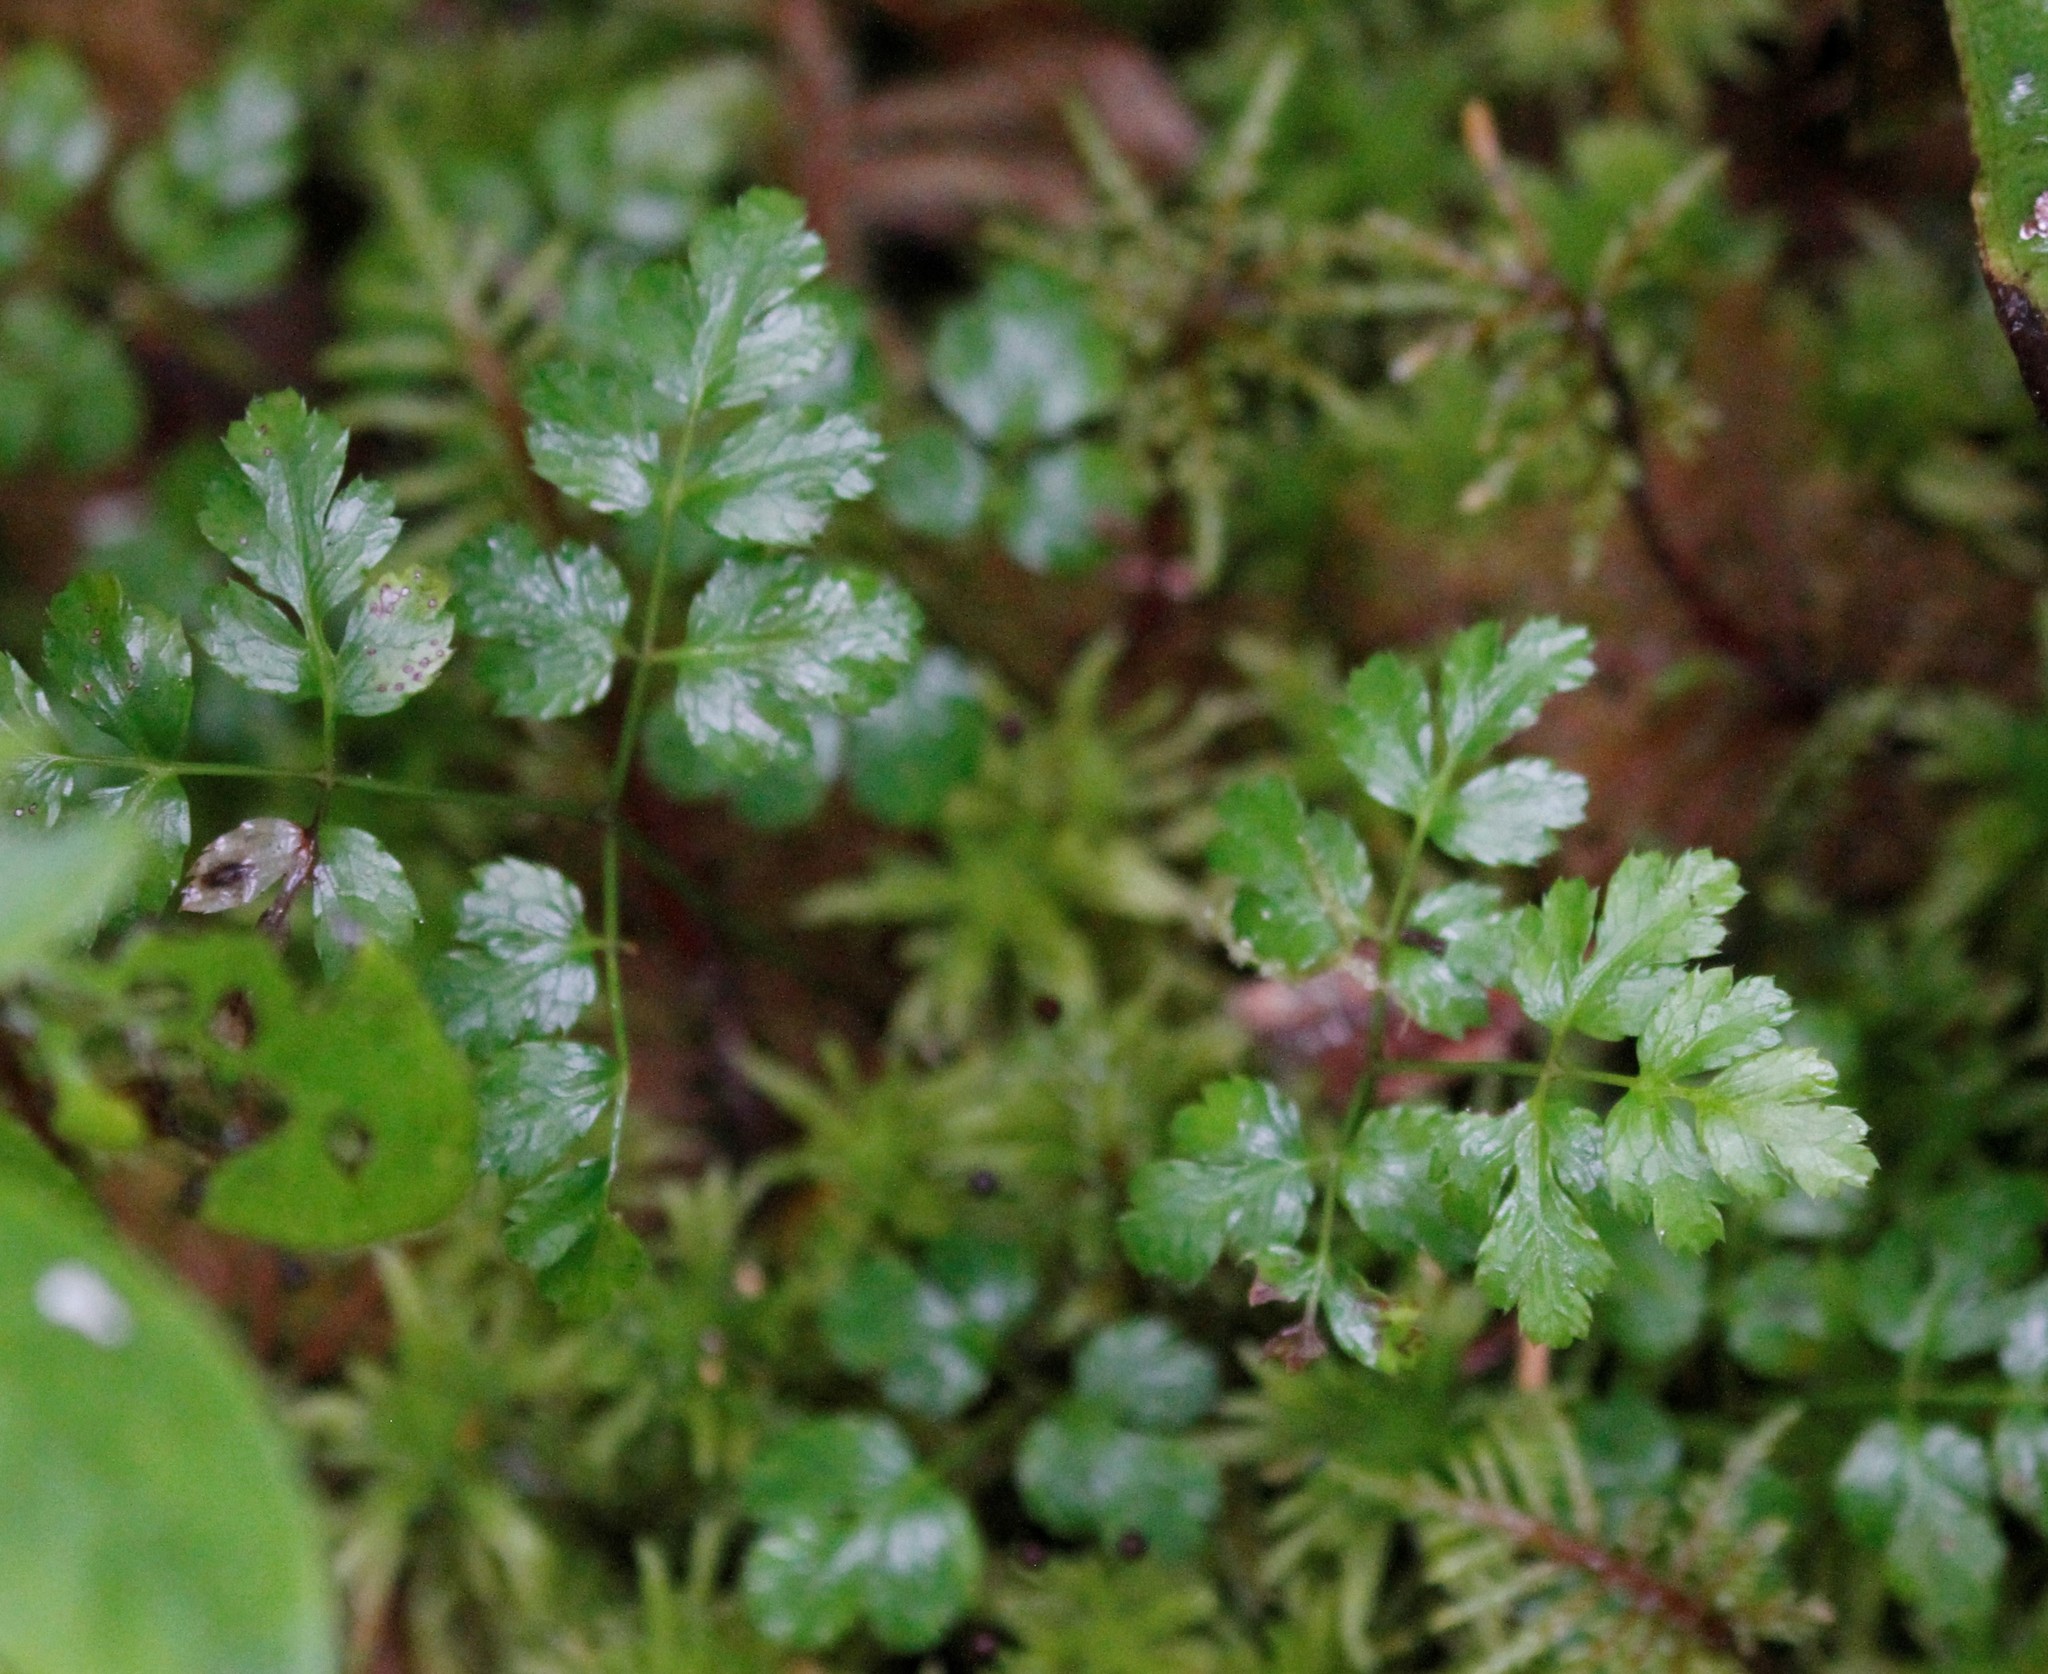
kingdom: Plantae
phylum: Tracheophyta
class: Magnoliopsida
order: Ranunculales
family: Ranunculaceae
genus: Coptis
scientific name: Coptis aspleniifolia
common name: Fern-leaved goldthread
